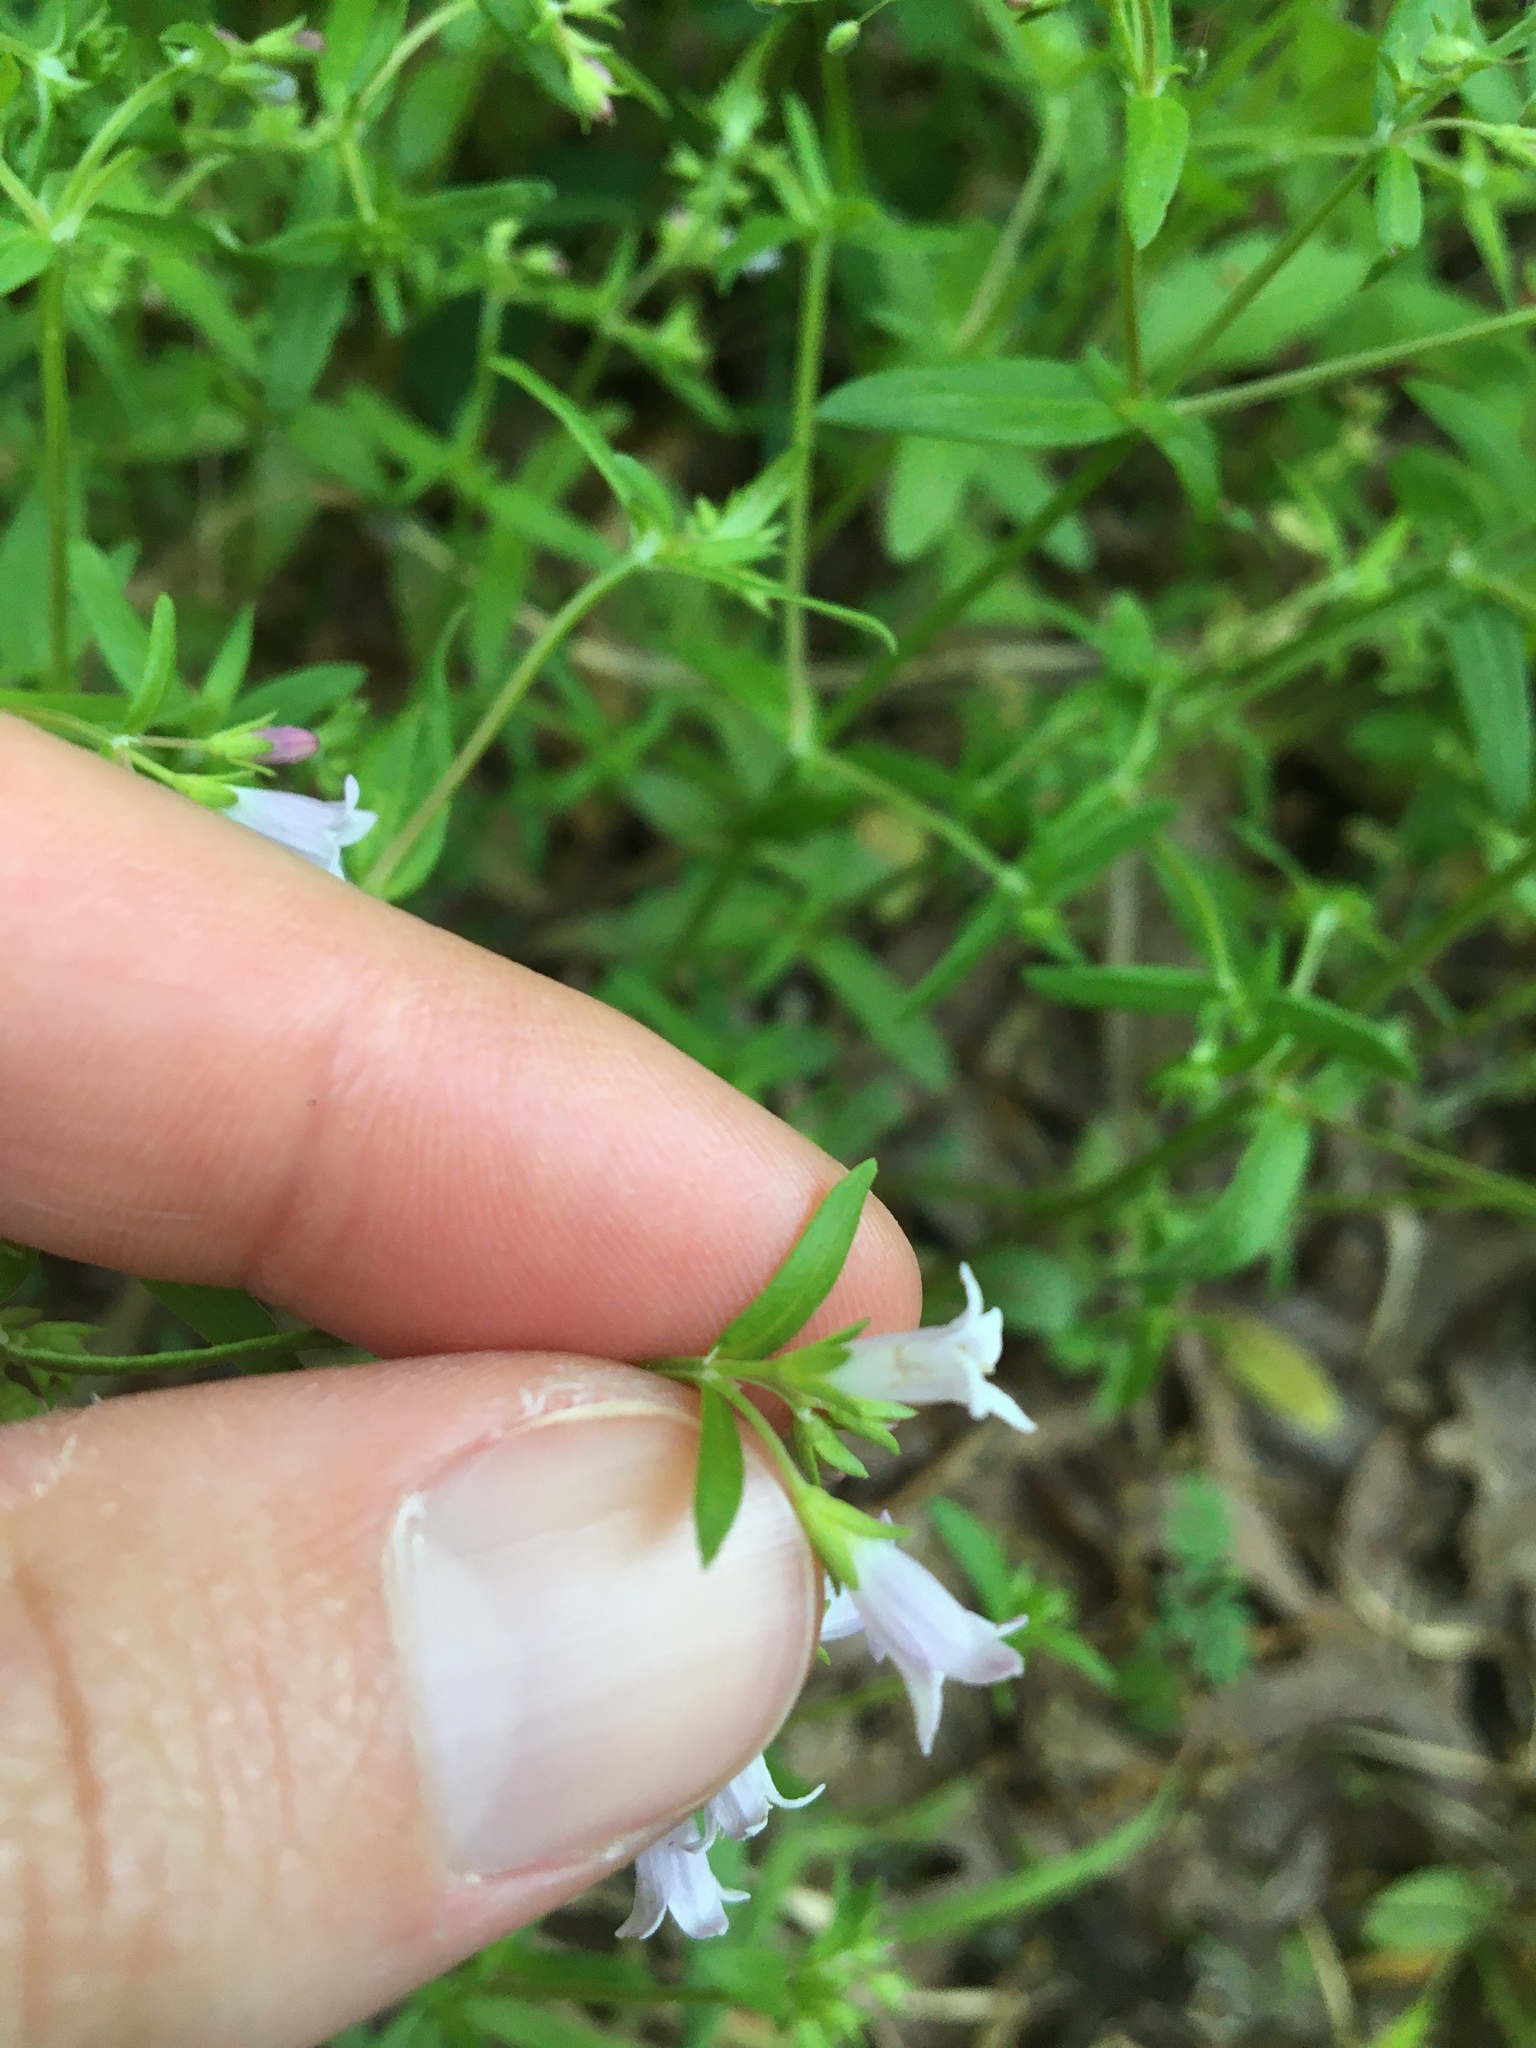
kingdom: Plantae
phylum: Tracheophyta
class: Magnoliopsida
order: Gentianales
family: Rubiaceae
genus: Houstonia
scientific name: Houstonia longifolia
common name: Long-leaved bluets
